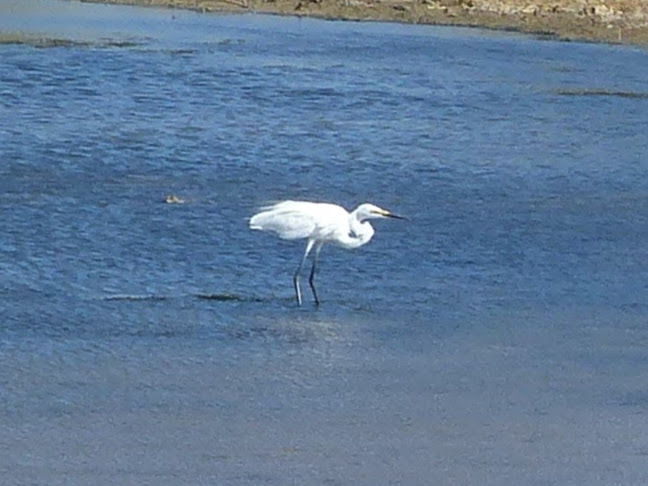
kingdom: Animalia
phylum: Chordata
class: Aves
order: Pelecaniformes
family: Ardeidae
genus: Egretta
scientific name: Egretta garzetta
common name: Little egret
